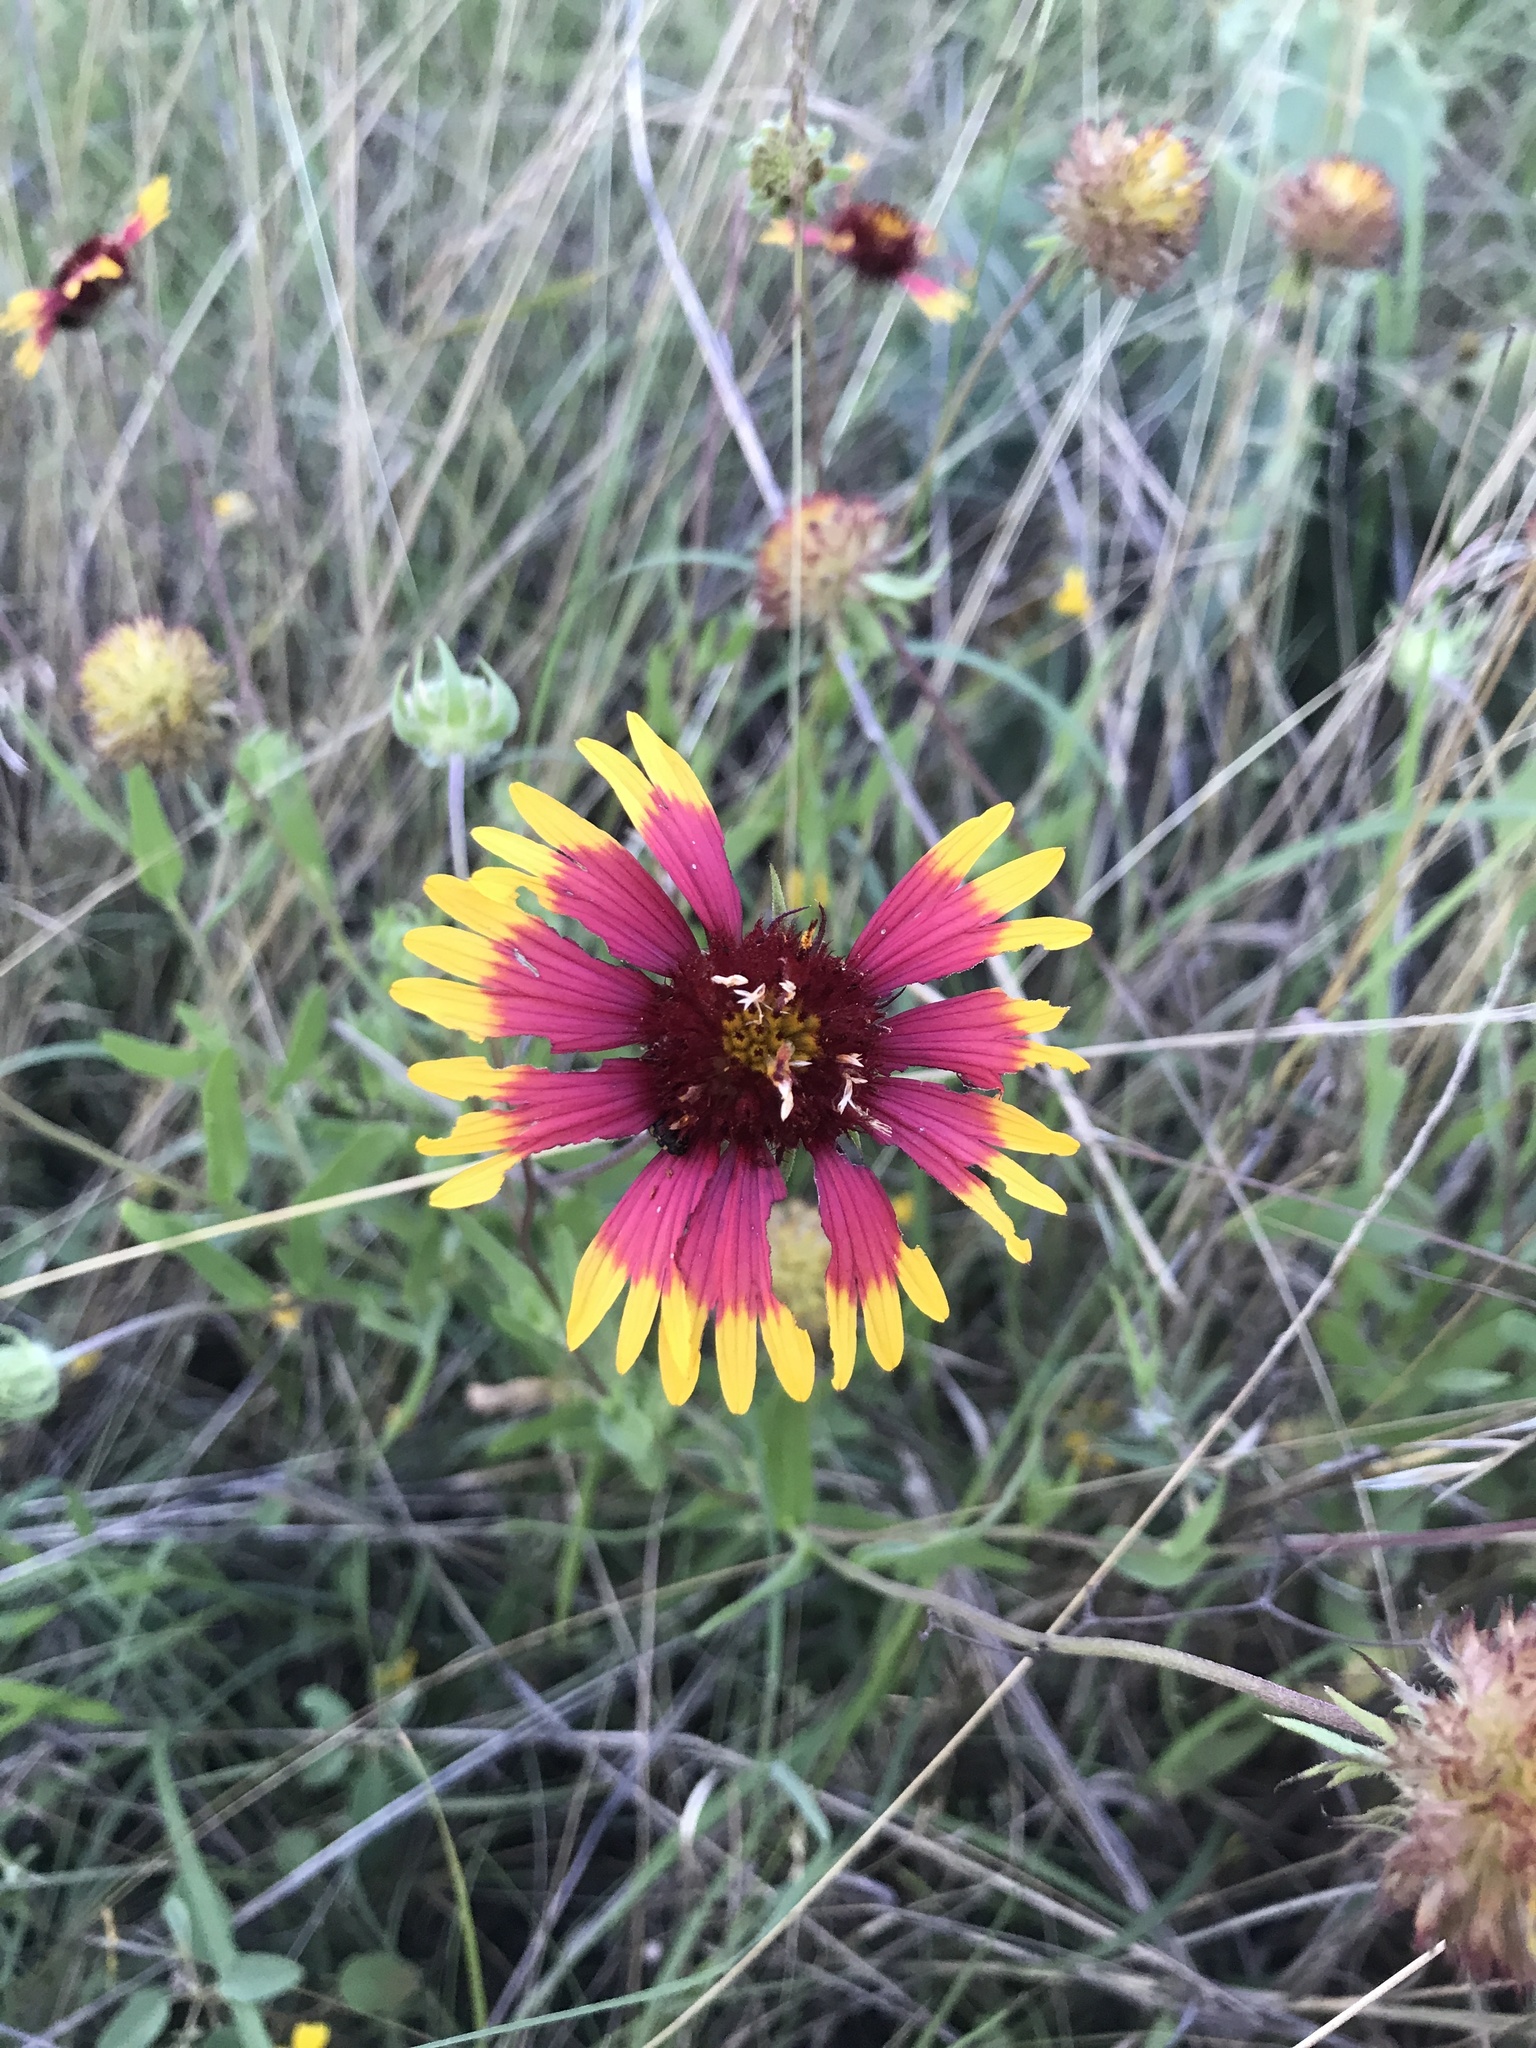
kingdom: Plantae
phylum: Tracheophyta
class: Magnoliopsida
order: Asterales
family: Asteraceae
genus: Gaillardia
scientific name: Gaillardia pulchella
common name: Firewheel
